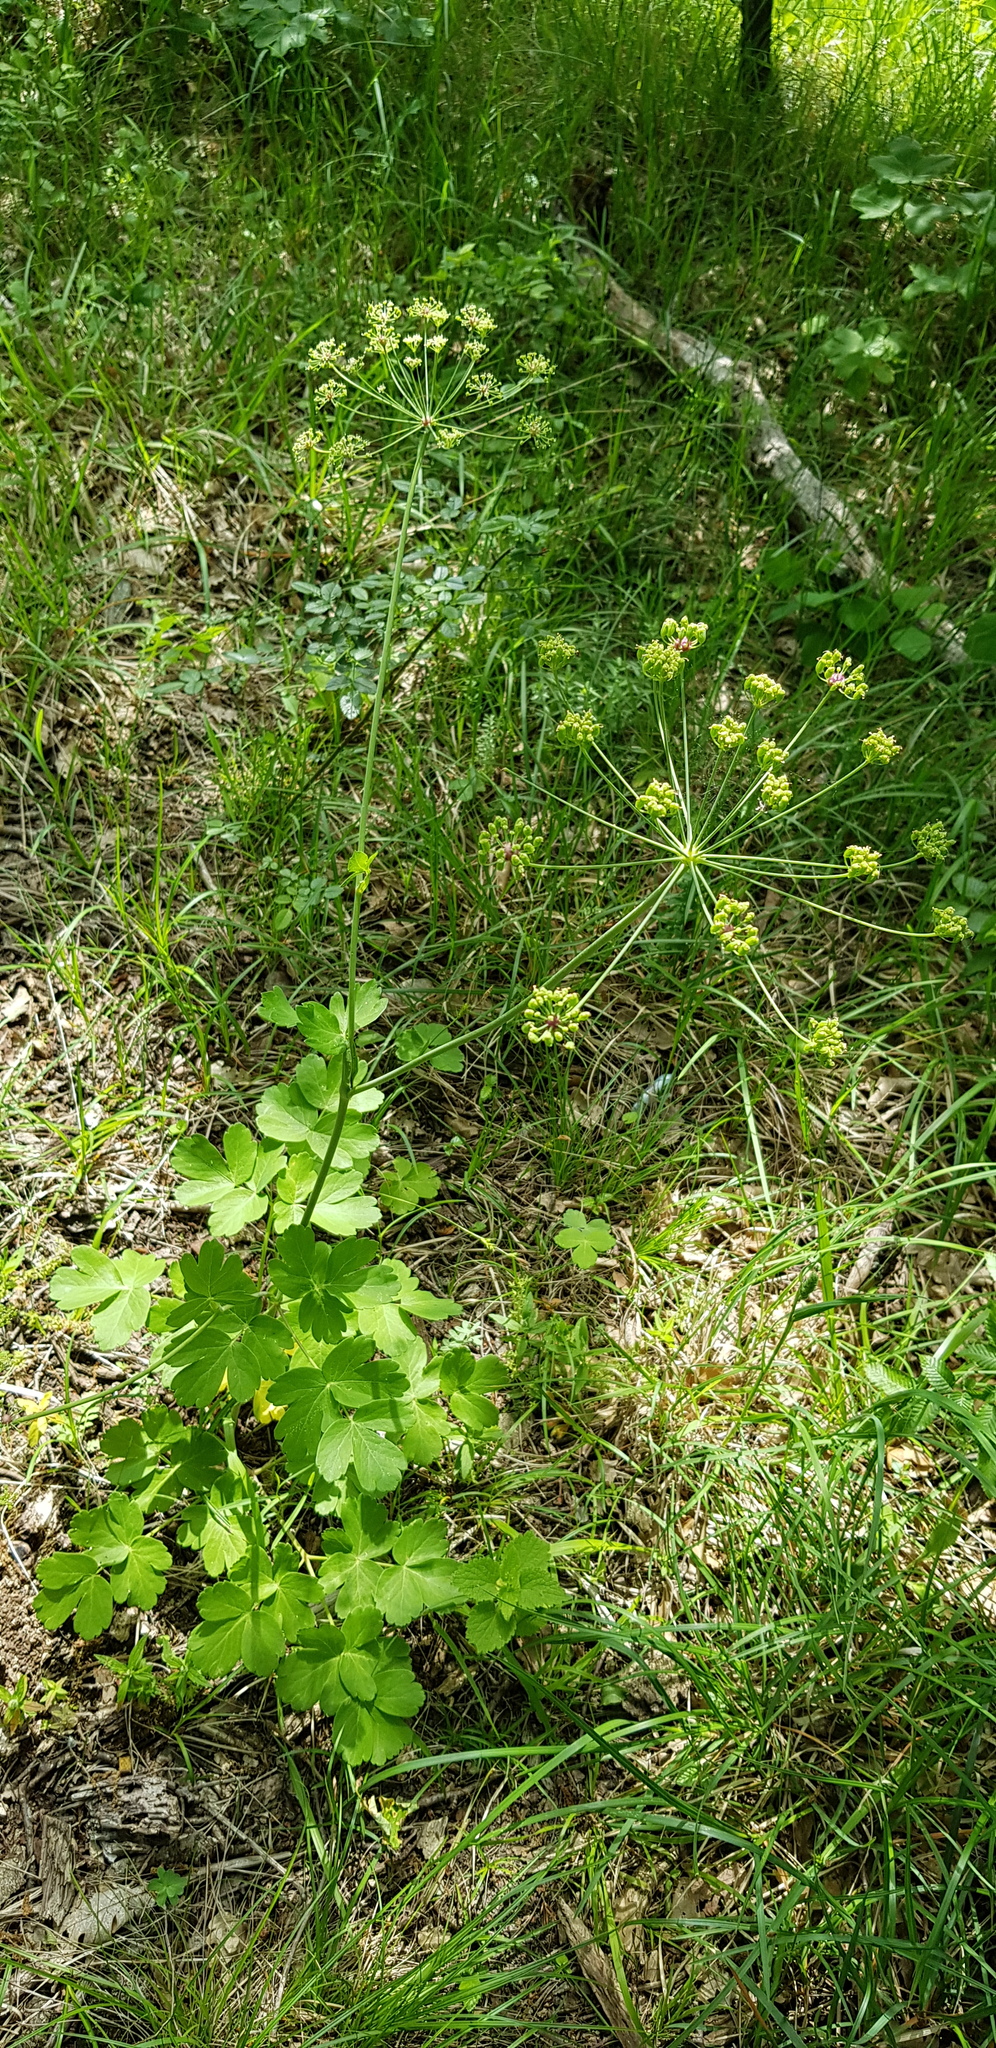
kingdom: Plantae
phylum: Tracheophyta
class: Magnoliopsida
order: Apiales
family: Apiaceae
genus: Laser
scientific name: Laser trilobum
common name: Laser
